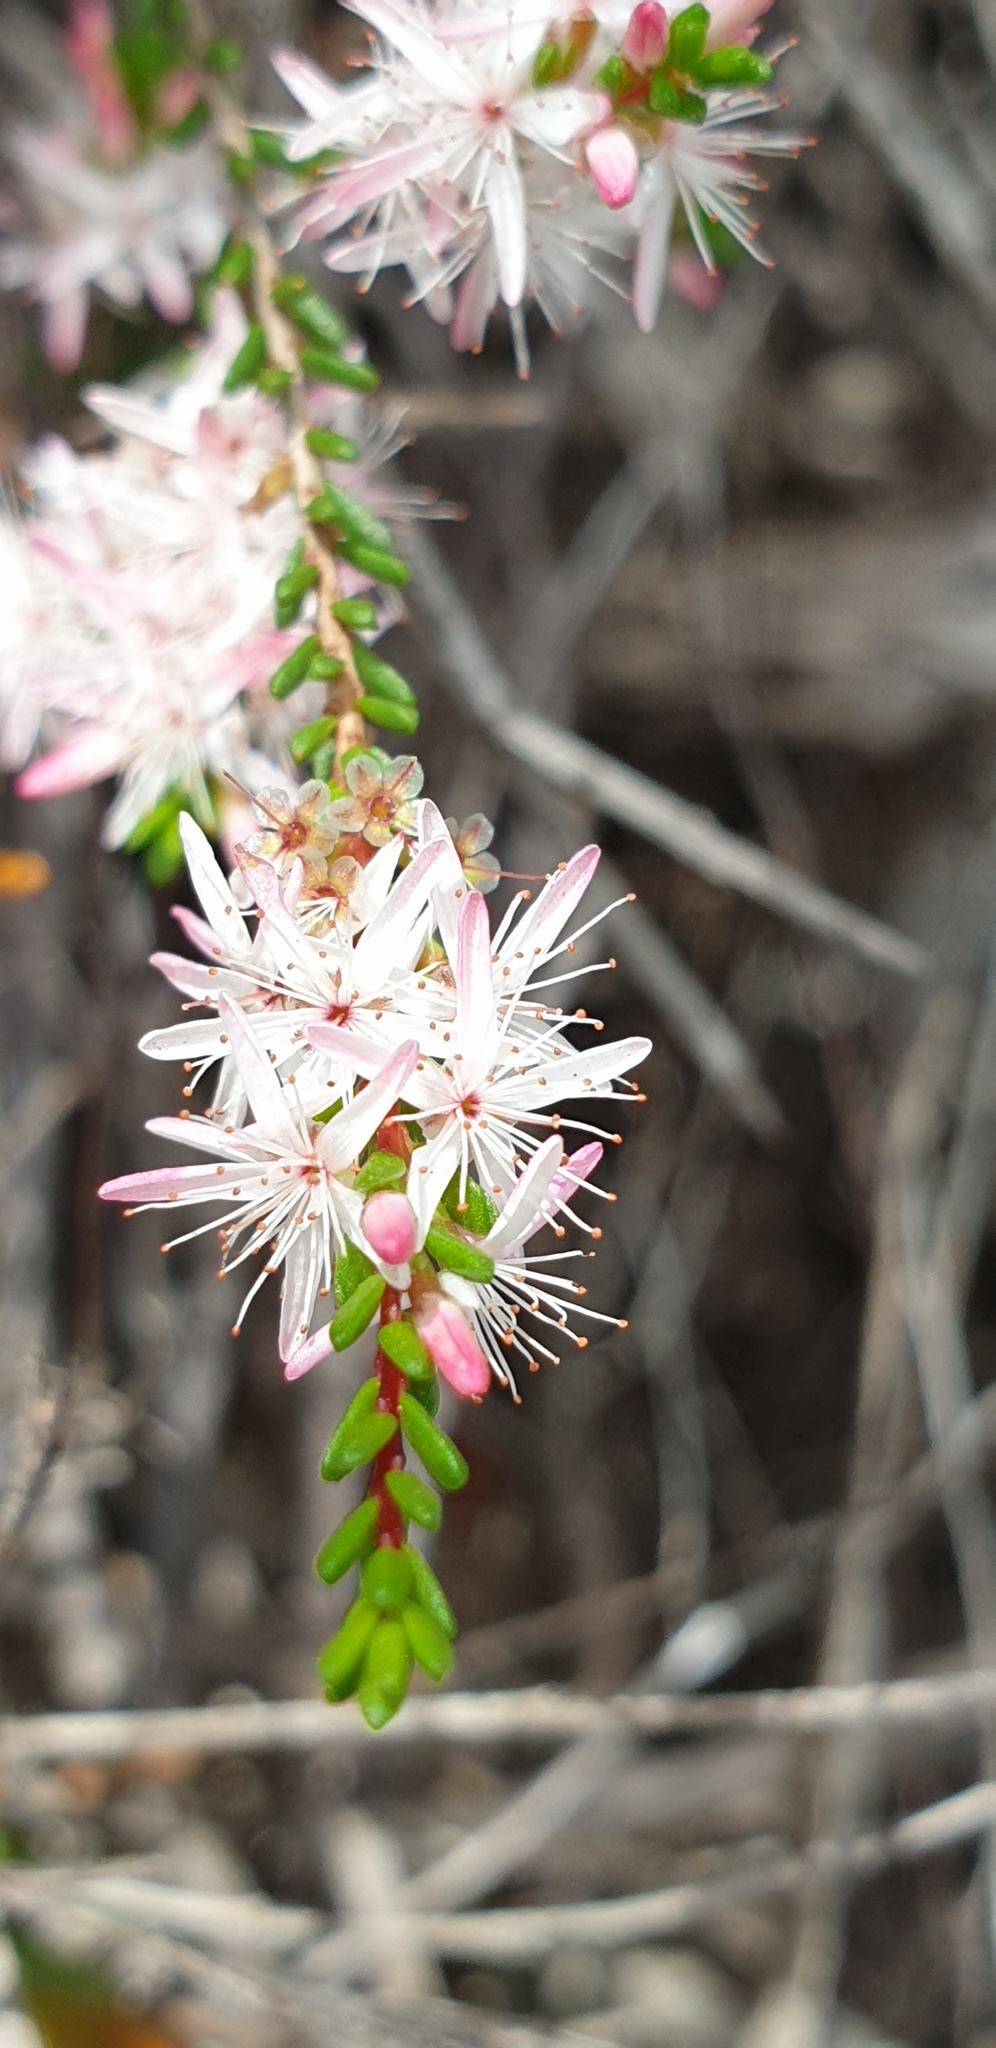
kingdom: Plantae
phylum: Tracheophyta
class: Magnoliopsida
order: Myrtales
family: Myrtaceae
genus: Calytrix
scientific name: Calytrix glaberrima
